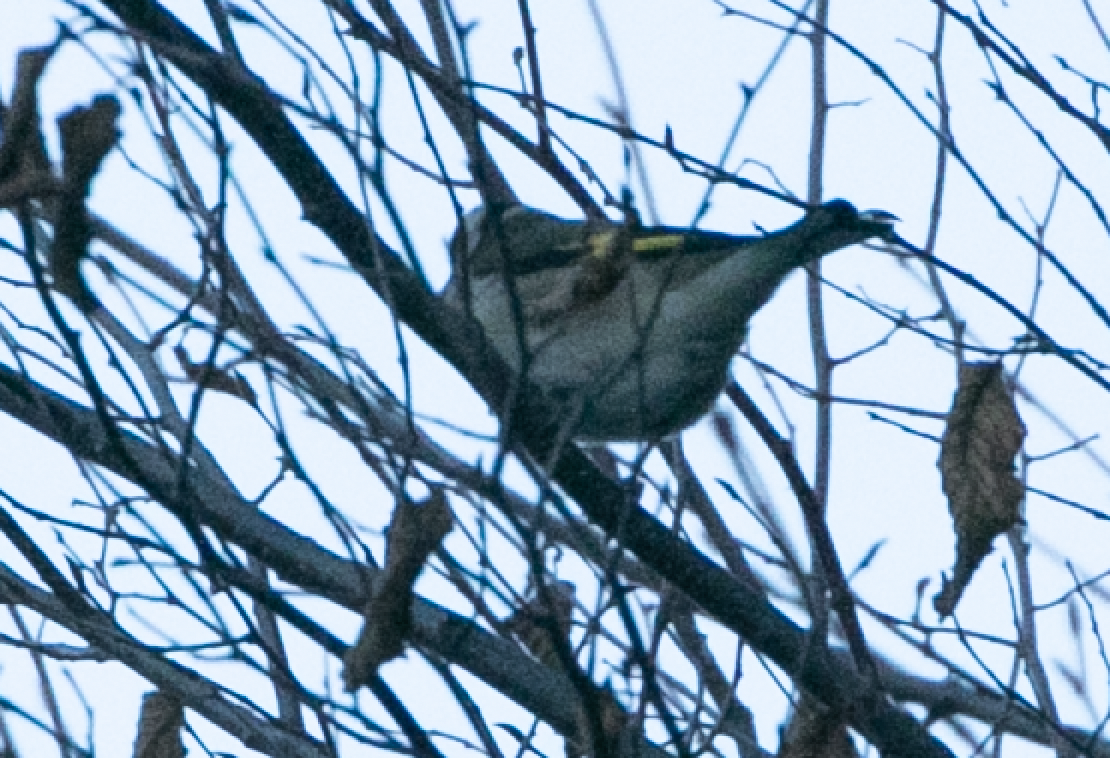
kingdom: Animalia
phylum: Chordata
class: Aves
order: Passeriformes
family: Fringillidae
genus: Carduelis
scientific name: Carduelis carduelis
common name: European goldfinch
